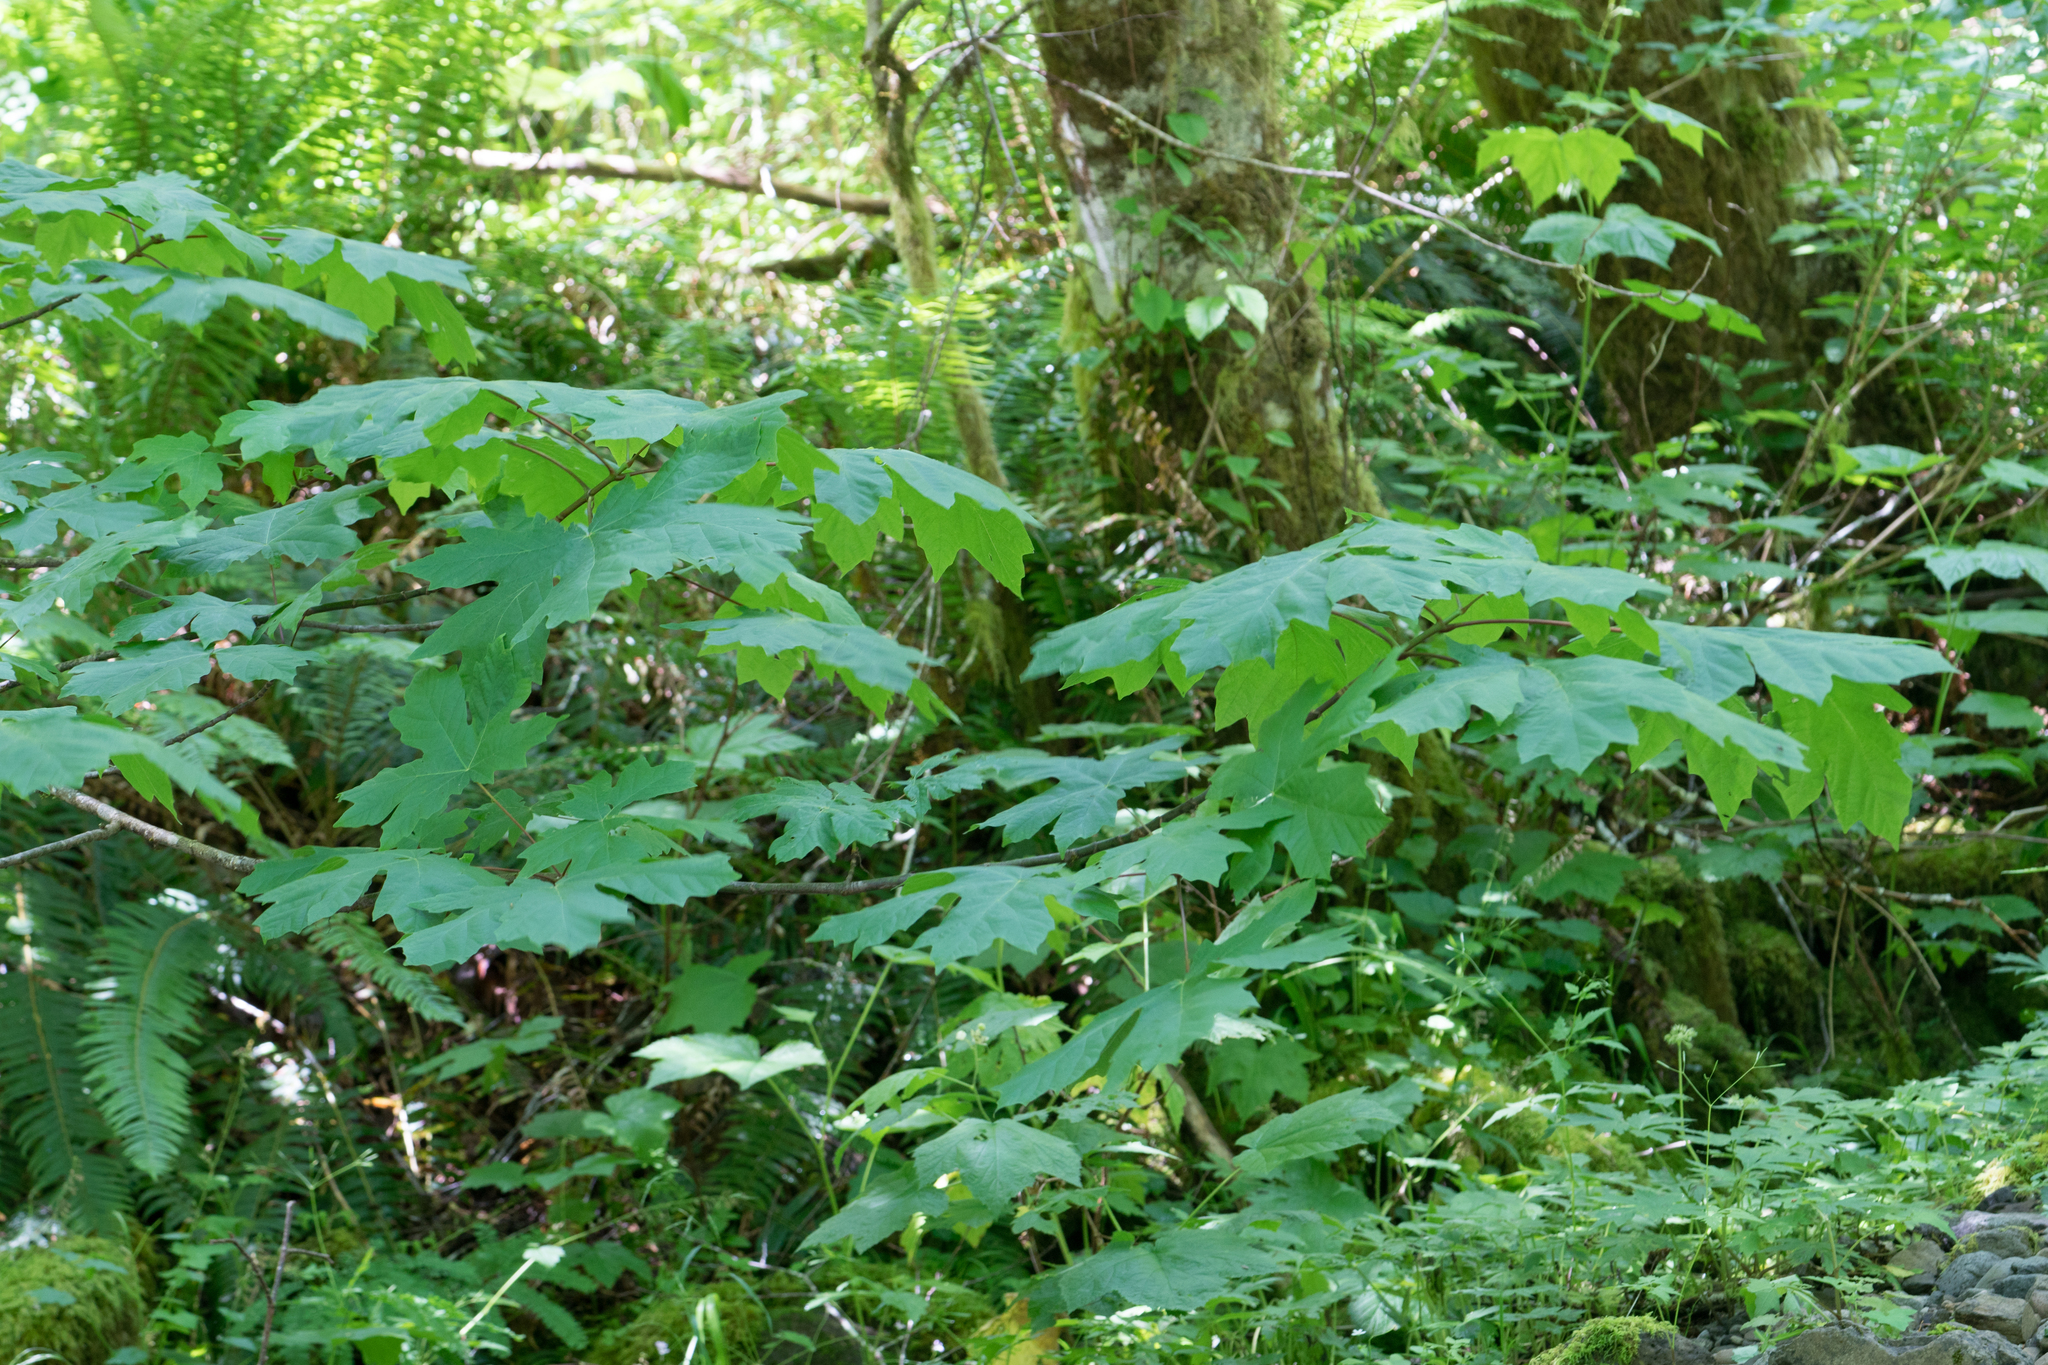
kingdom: Plantae
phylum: Tracheophyta
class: Magnoliopsida
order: Sapindales
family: Sapindaceae
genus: Acer
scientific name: Acer macrophyllum
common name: Oregon maple
